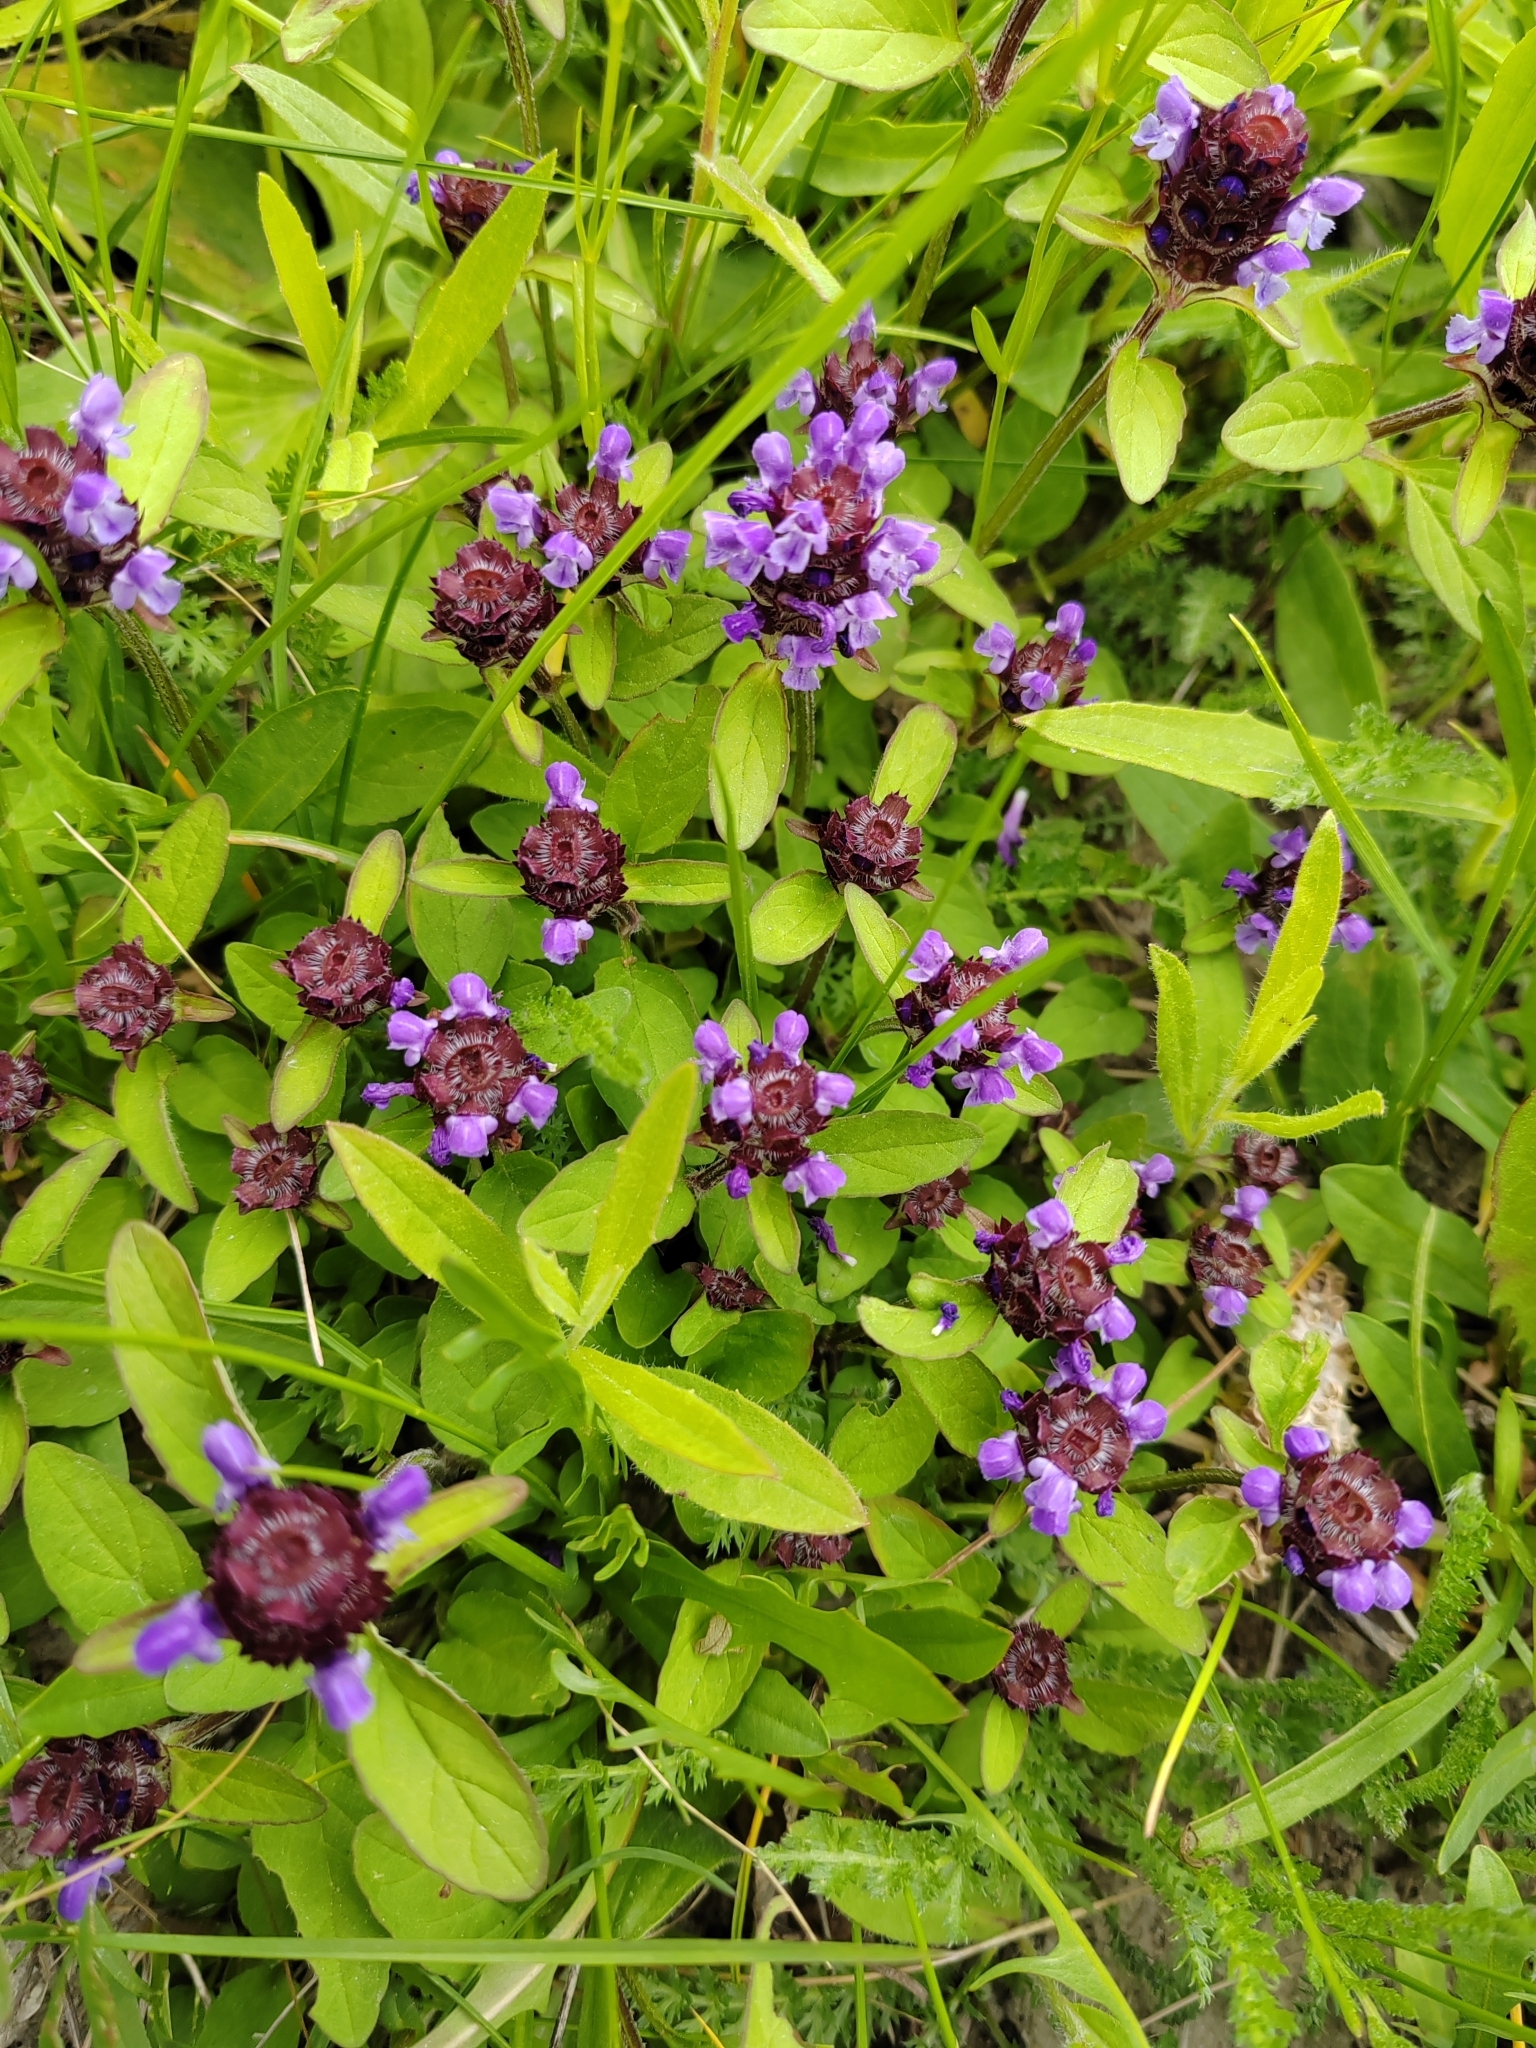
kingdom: Plantae
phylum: Tracheophyta
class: Magnoliopsida
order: Lamiales
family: Lamiaceae
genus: Prunella
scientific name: Prunella vulgaris
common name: Heal-all
